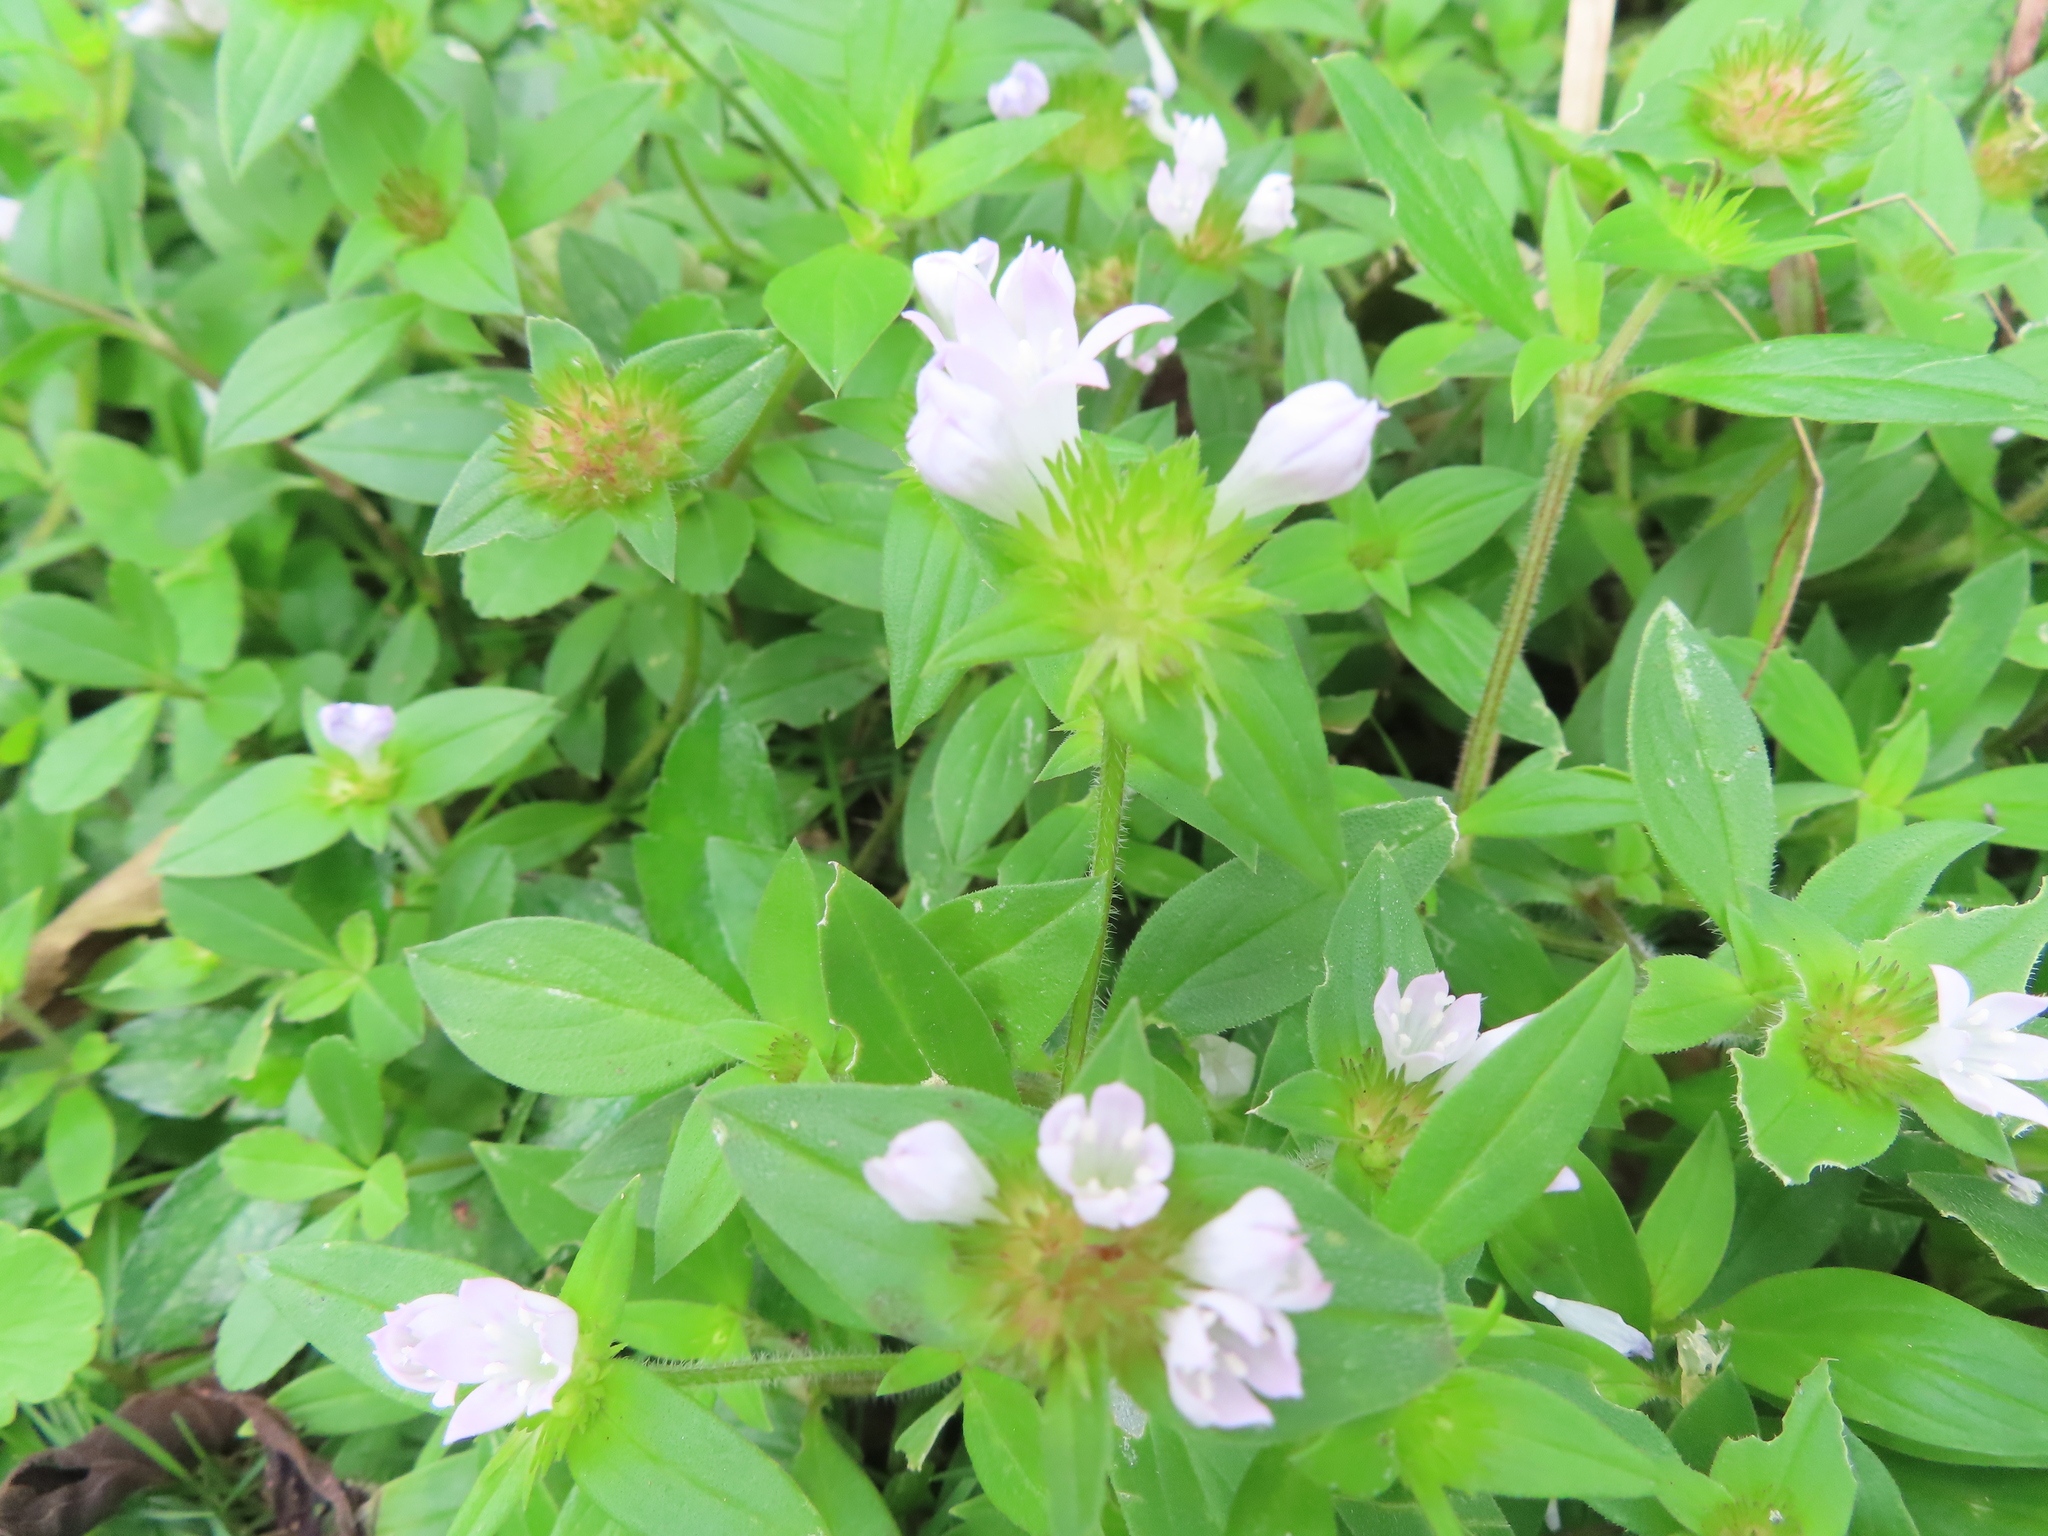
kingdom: Plantae
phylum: Tracheophyta
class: Magnoliopsida
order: Gentianales
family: Rubiaceae
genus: Richardia
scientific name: Richardia grandiflora
